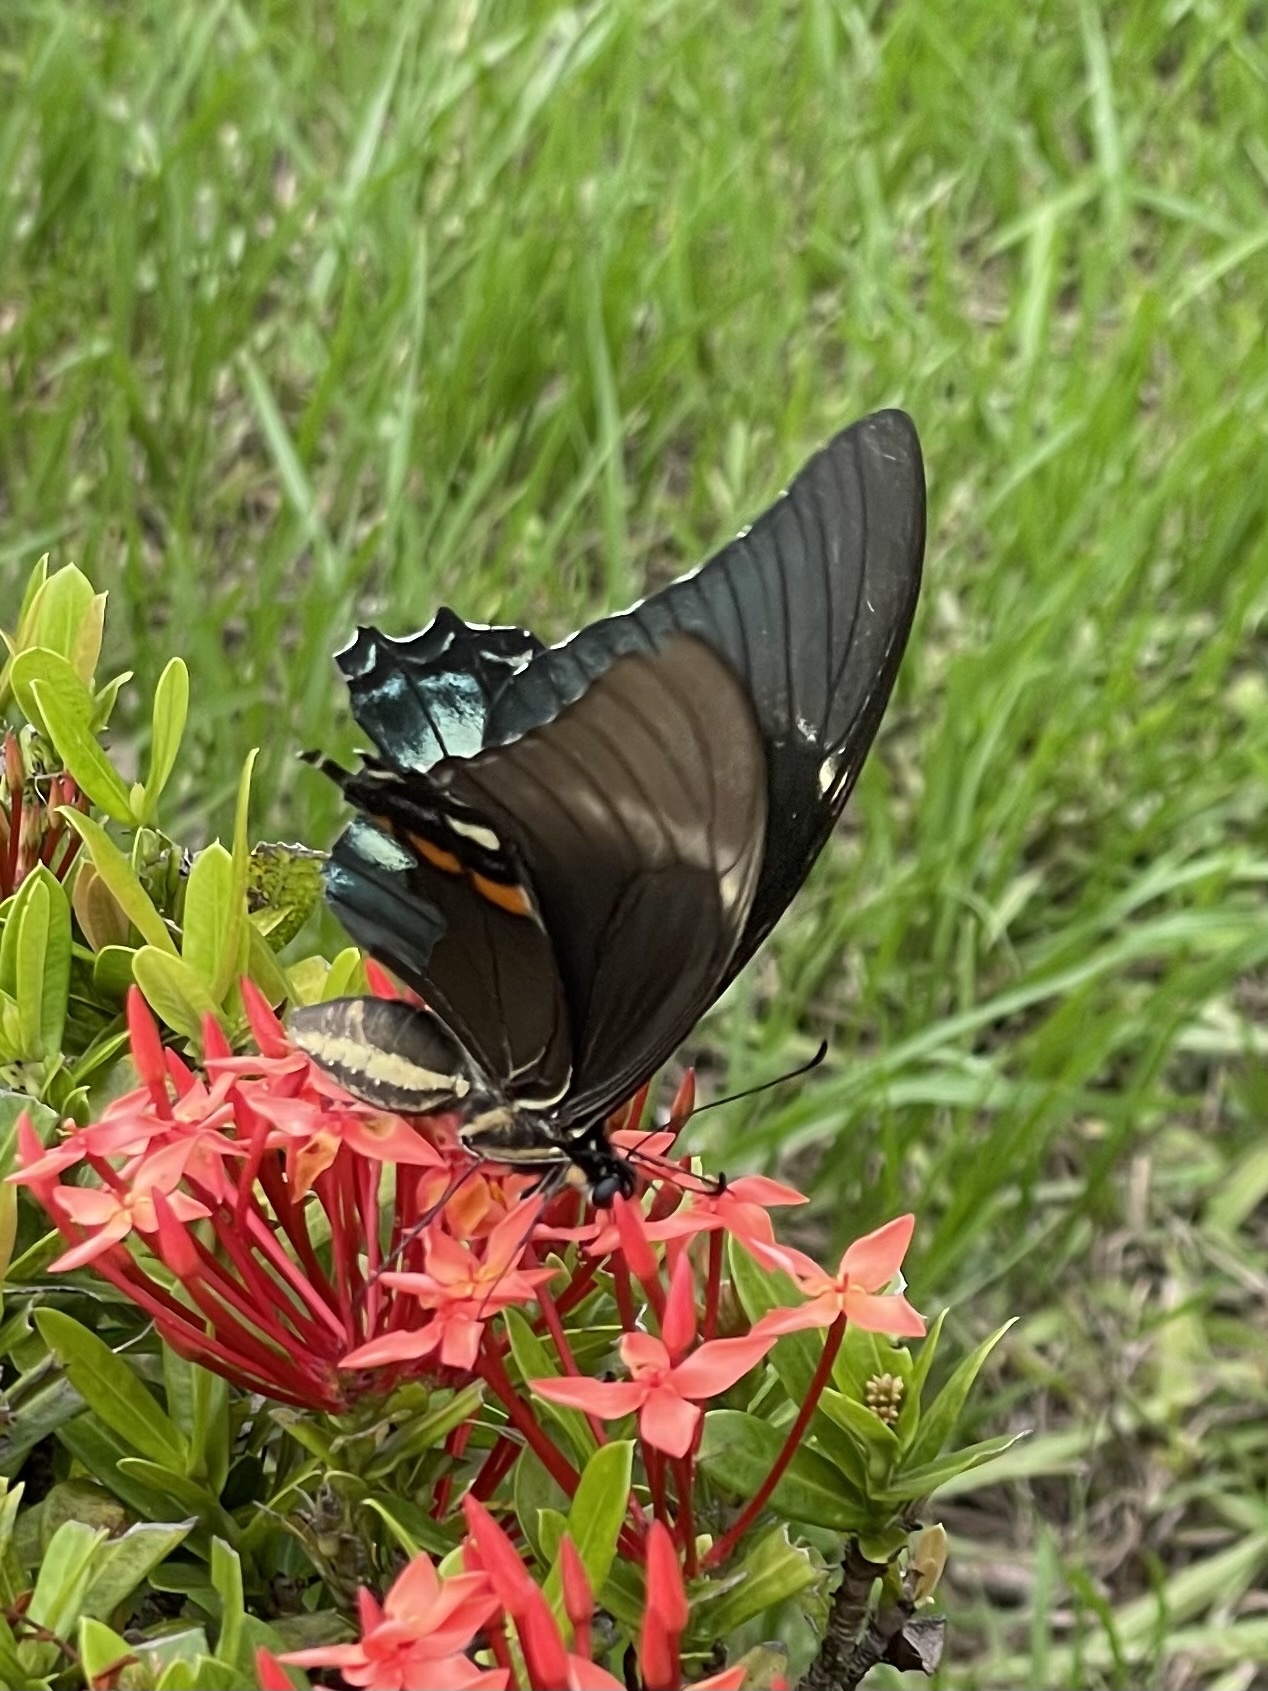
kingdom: Animalia
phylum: Arthropoda
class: Insecta
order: Lepidoptera
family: Papilionidae
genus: Papilio
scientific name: Papilio androgeus
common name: Androgeus swallowtail
